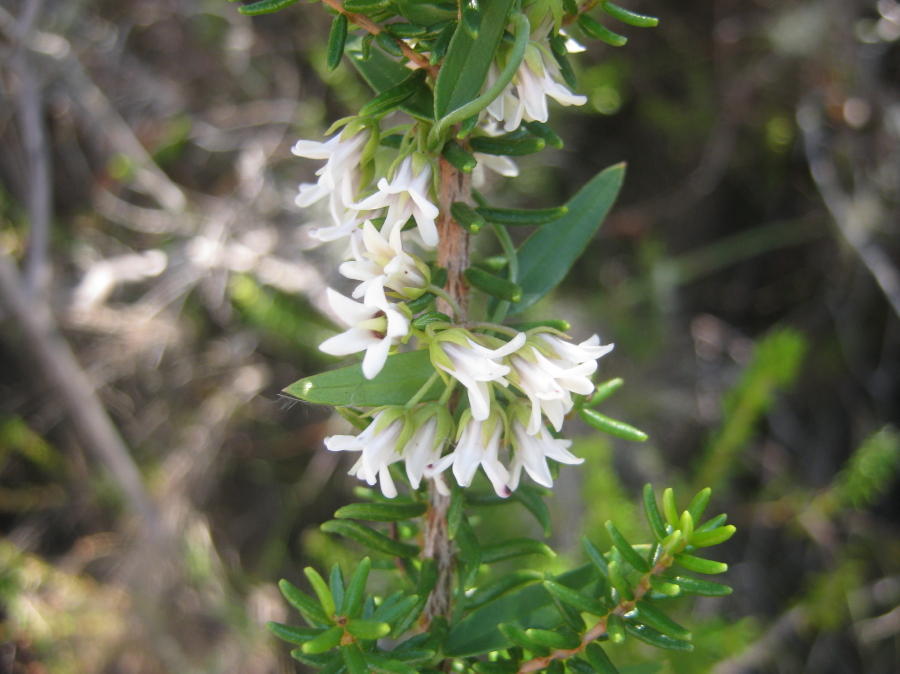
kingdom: Plantae
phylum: Tracheophyta
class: Magnoliopsida
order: Gentianales
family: Apocynaceae
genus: Astephanus
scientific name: Astephanus triflorus
